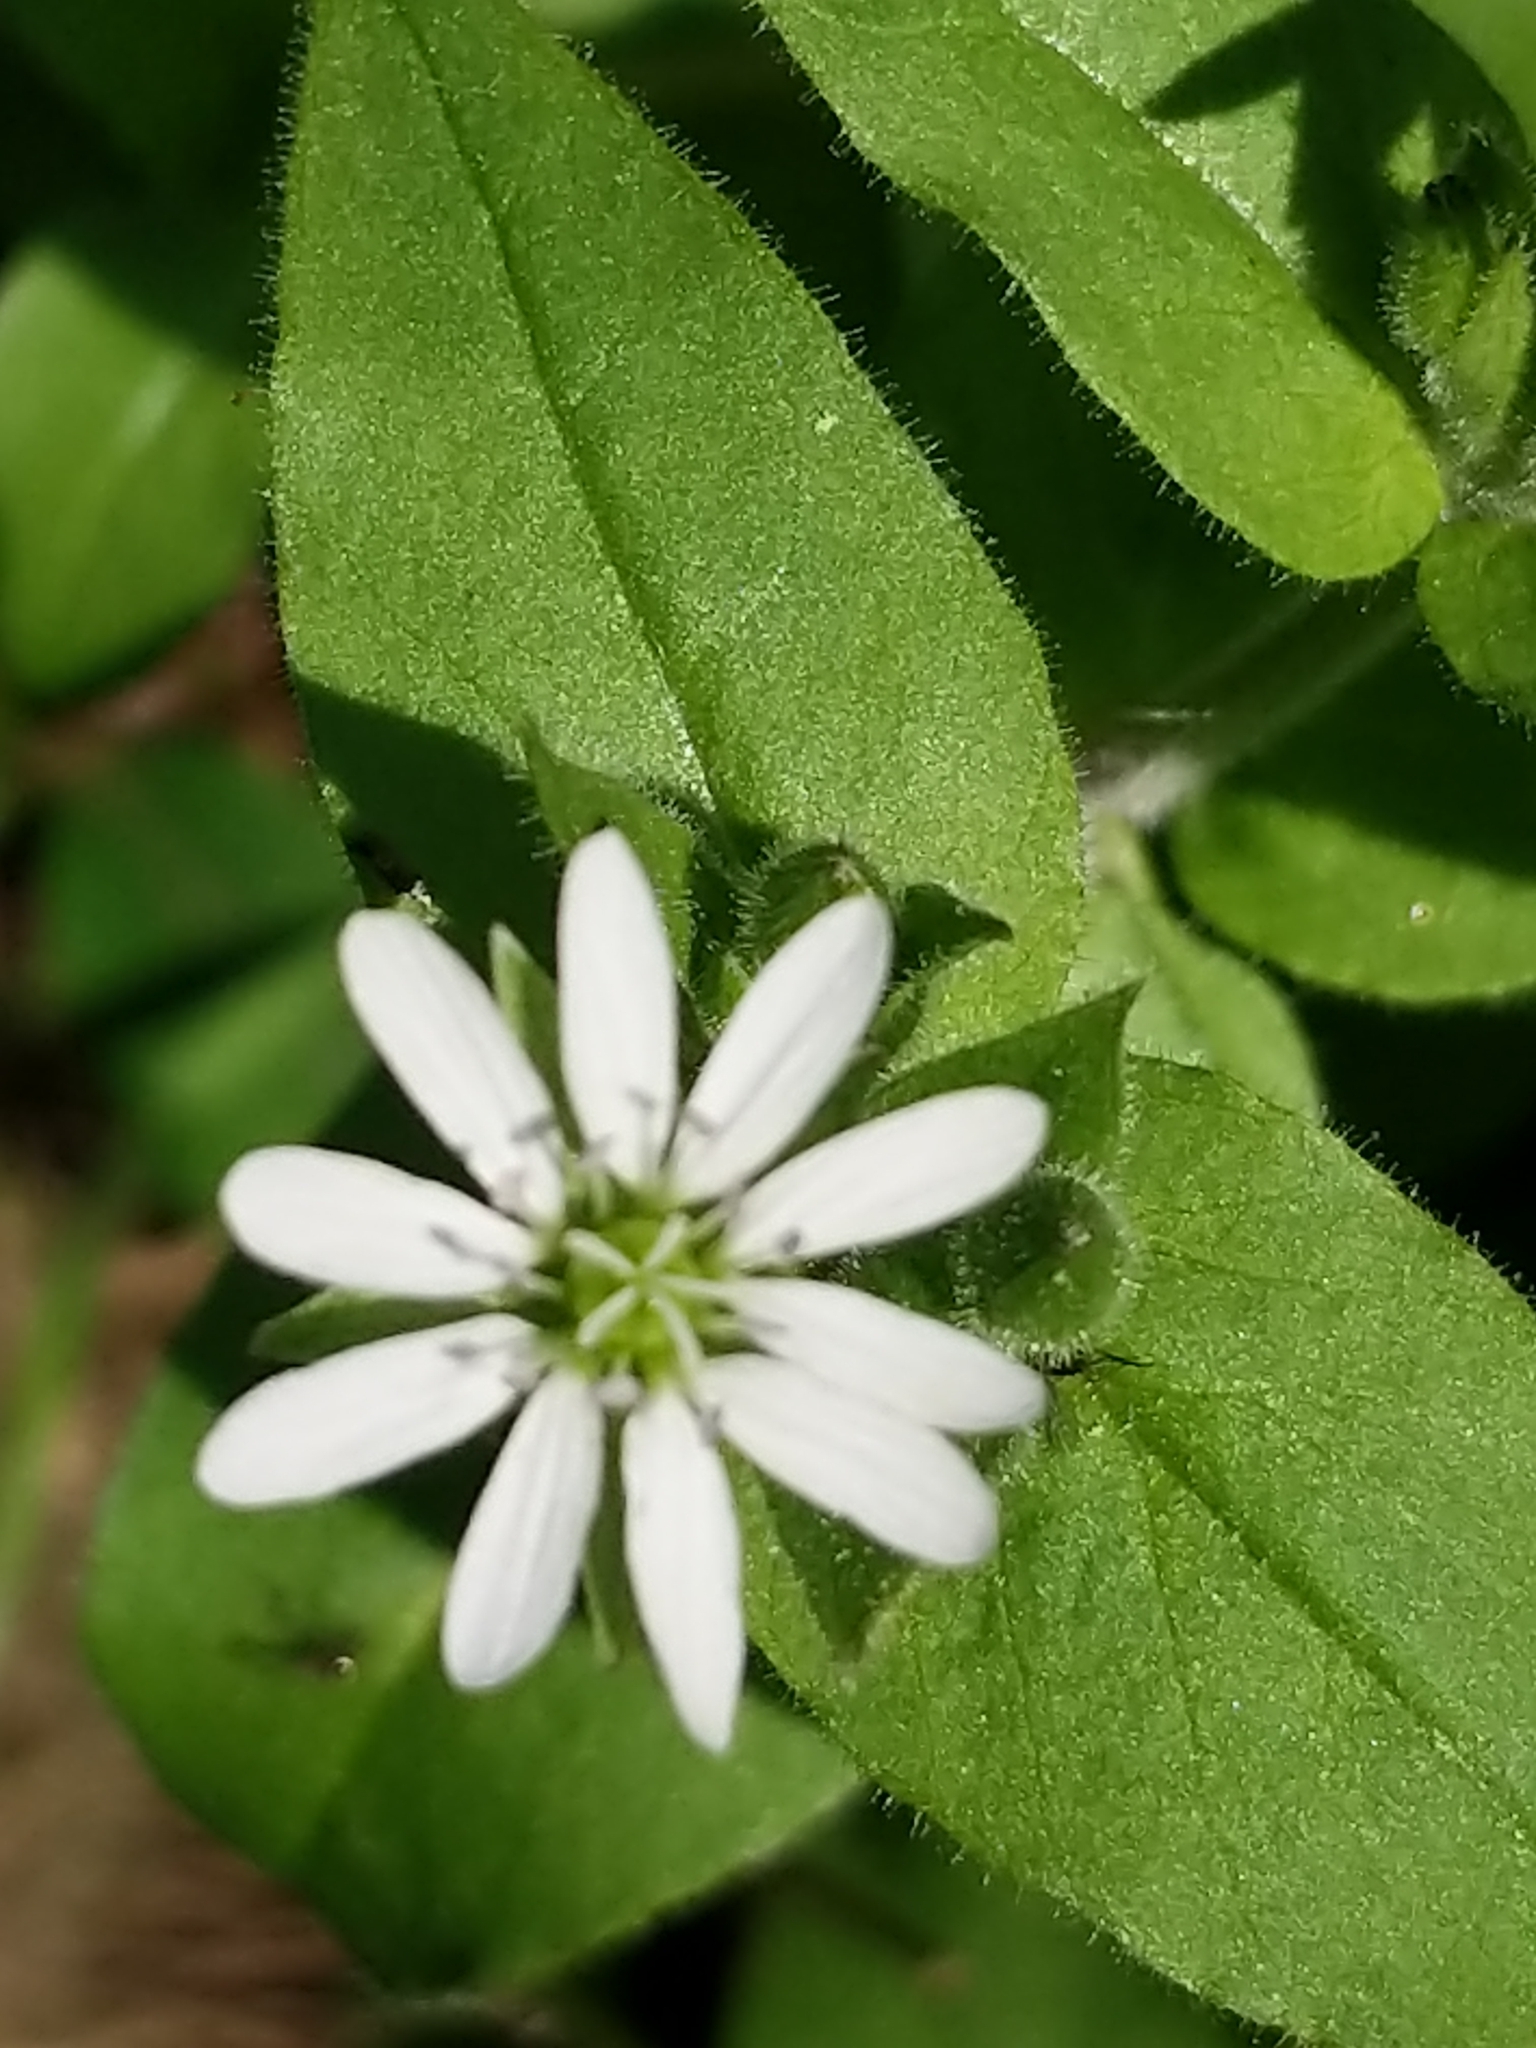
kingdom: Plantae
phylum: Tracheophyta
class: Magnoliopsida
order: Caryophyllales
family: Caryophyllaceae
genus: Stellaria
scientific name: Stellaria aquatica
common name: Water chickweed
